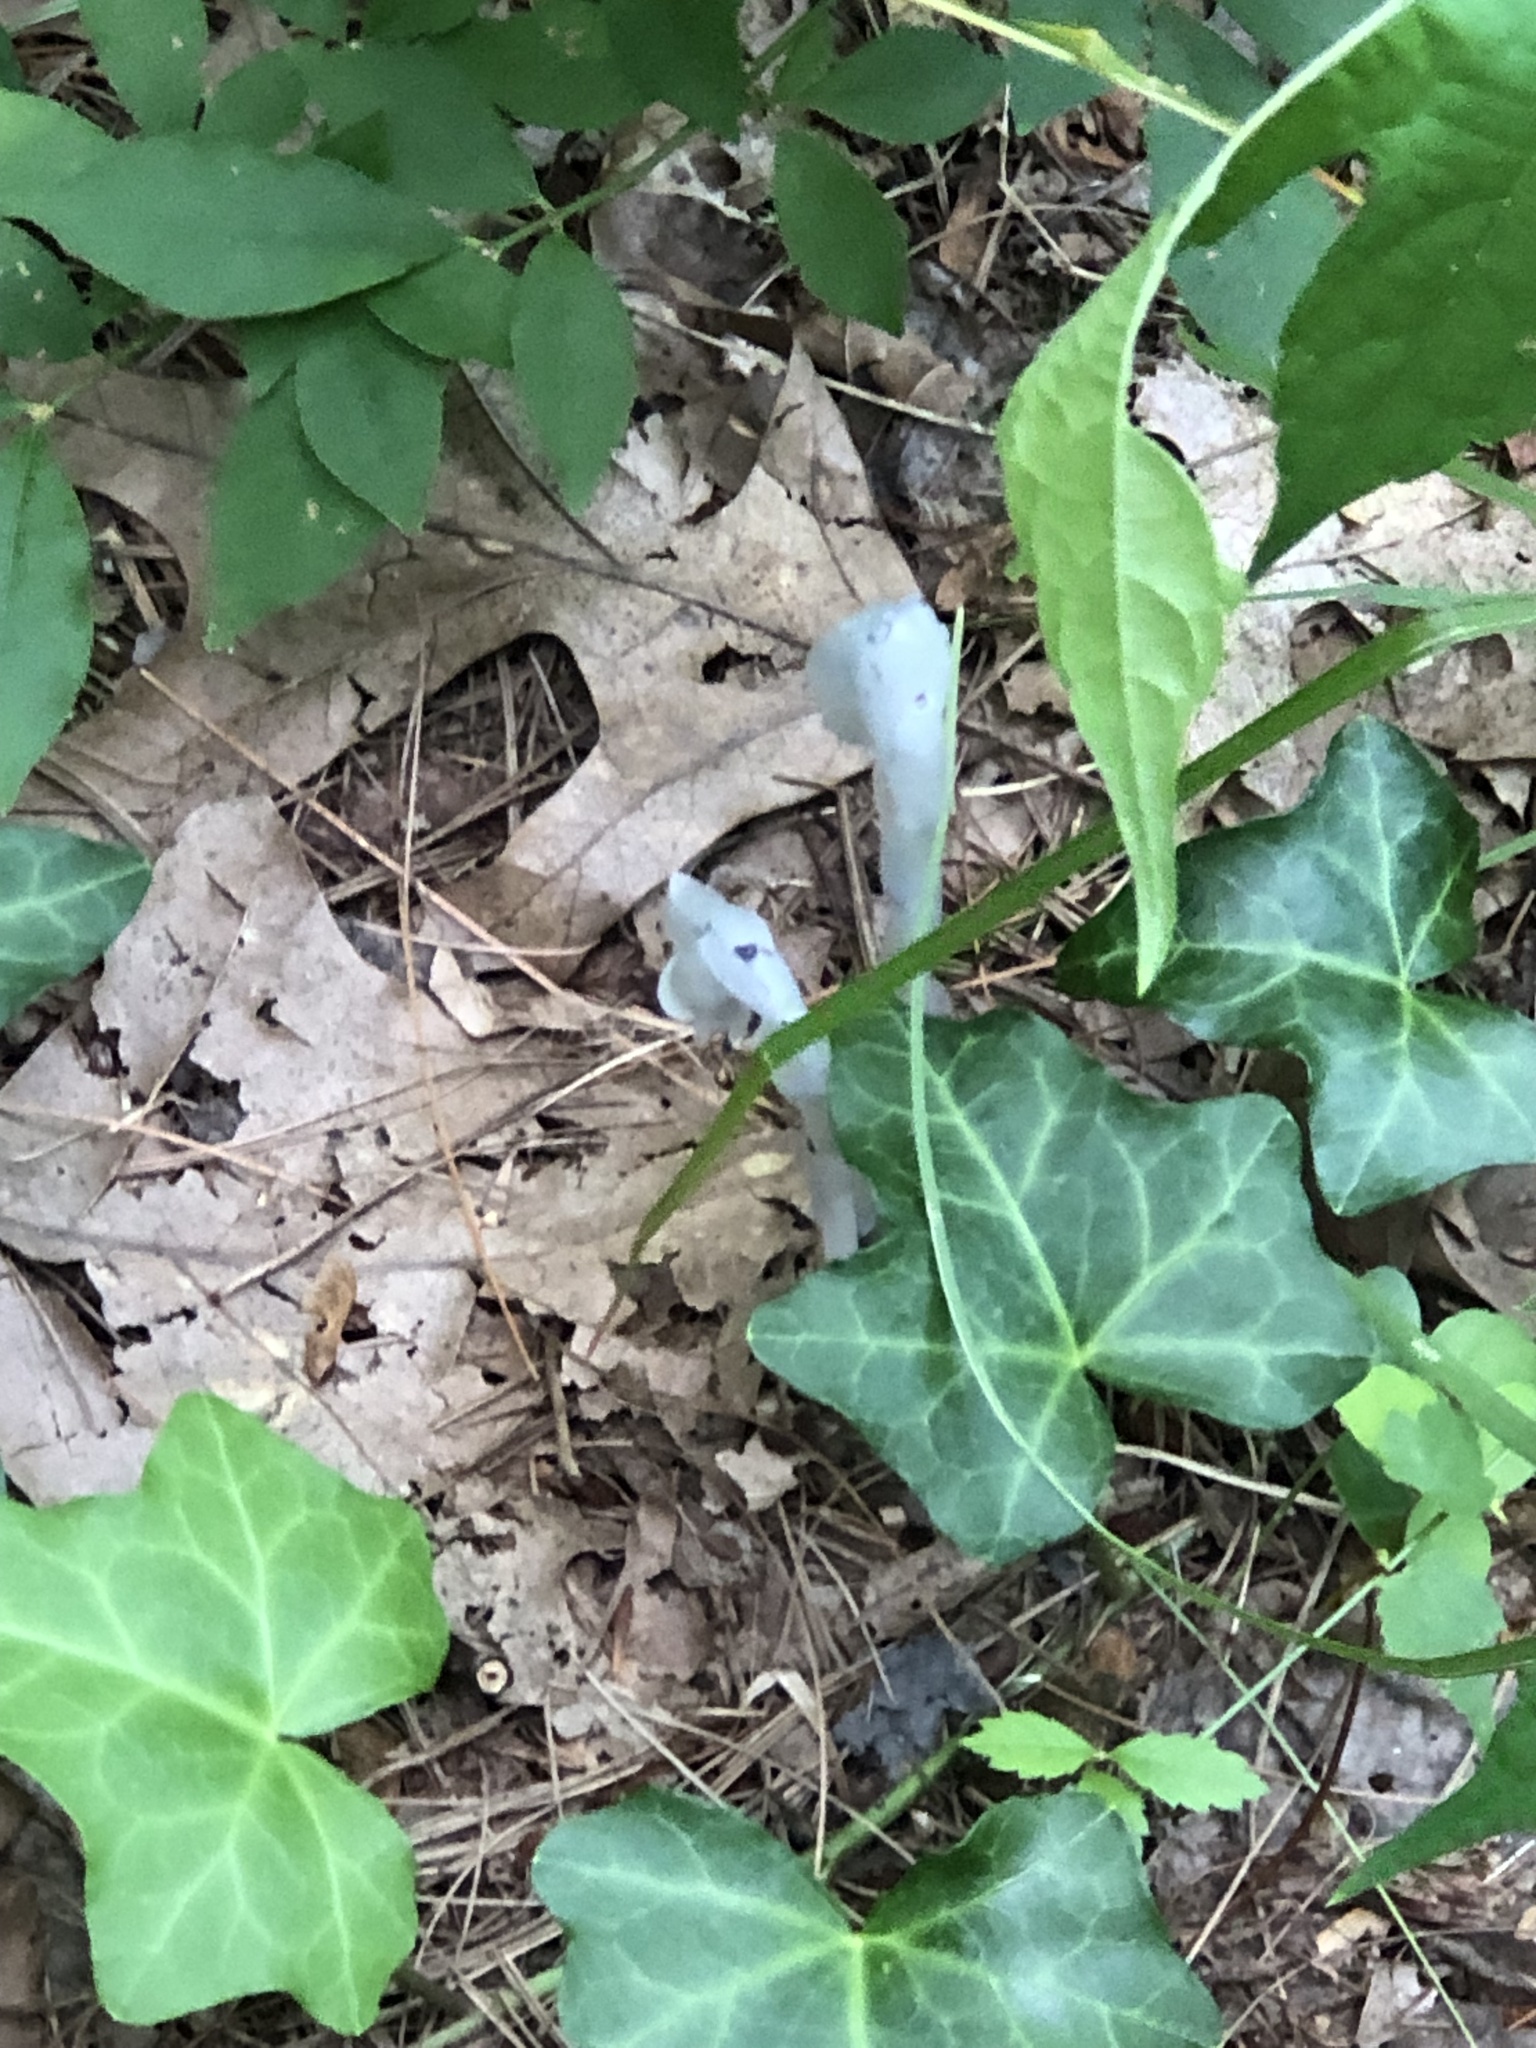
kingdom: Plantae
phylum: Tracheophyta
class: Magnoliopsida
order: Ericales
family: Ericaceae
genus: Monotropa
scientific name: Monotropa uniflora
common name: Convulsion root
